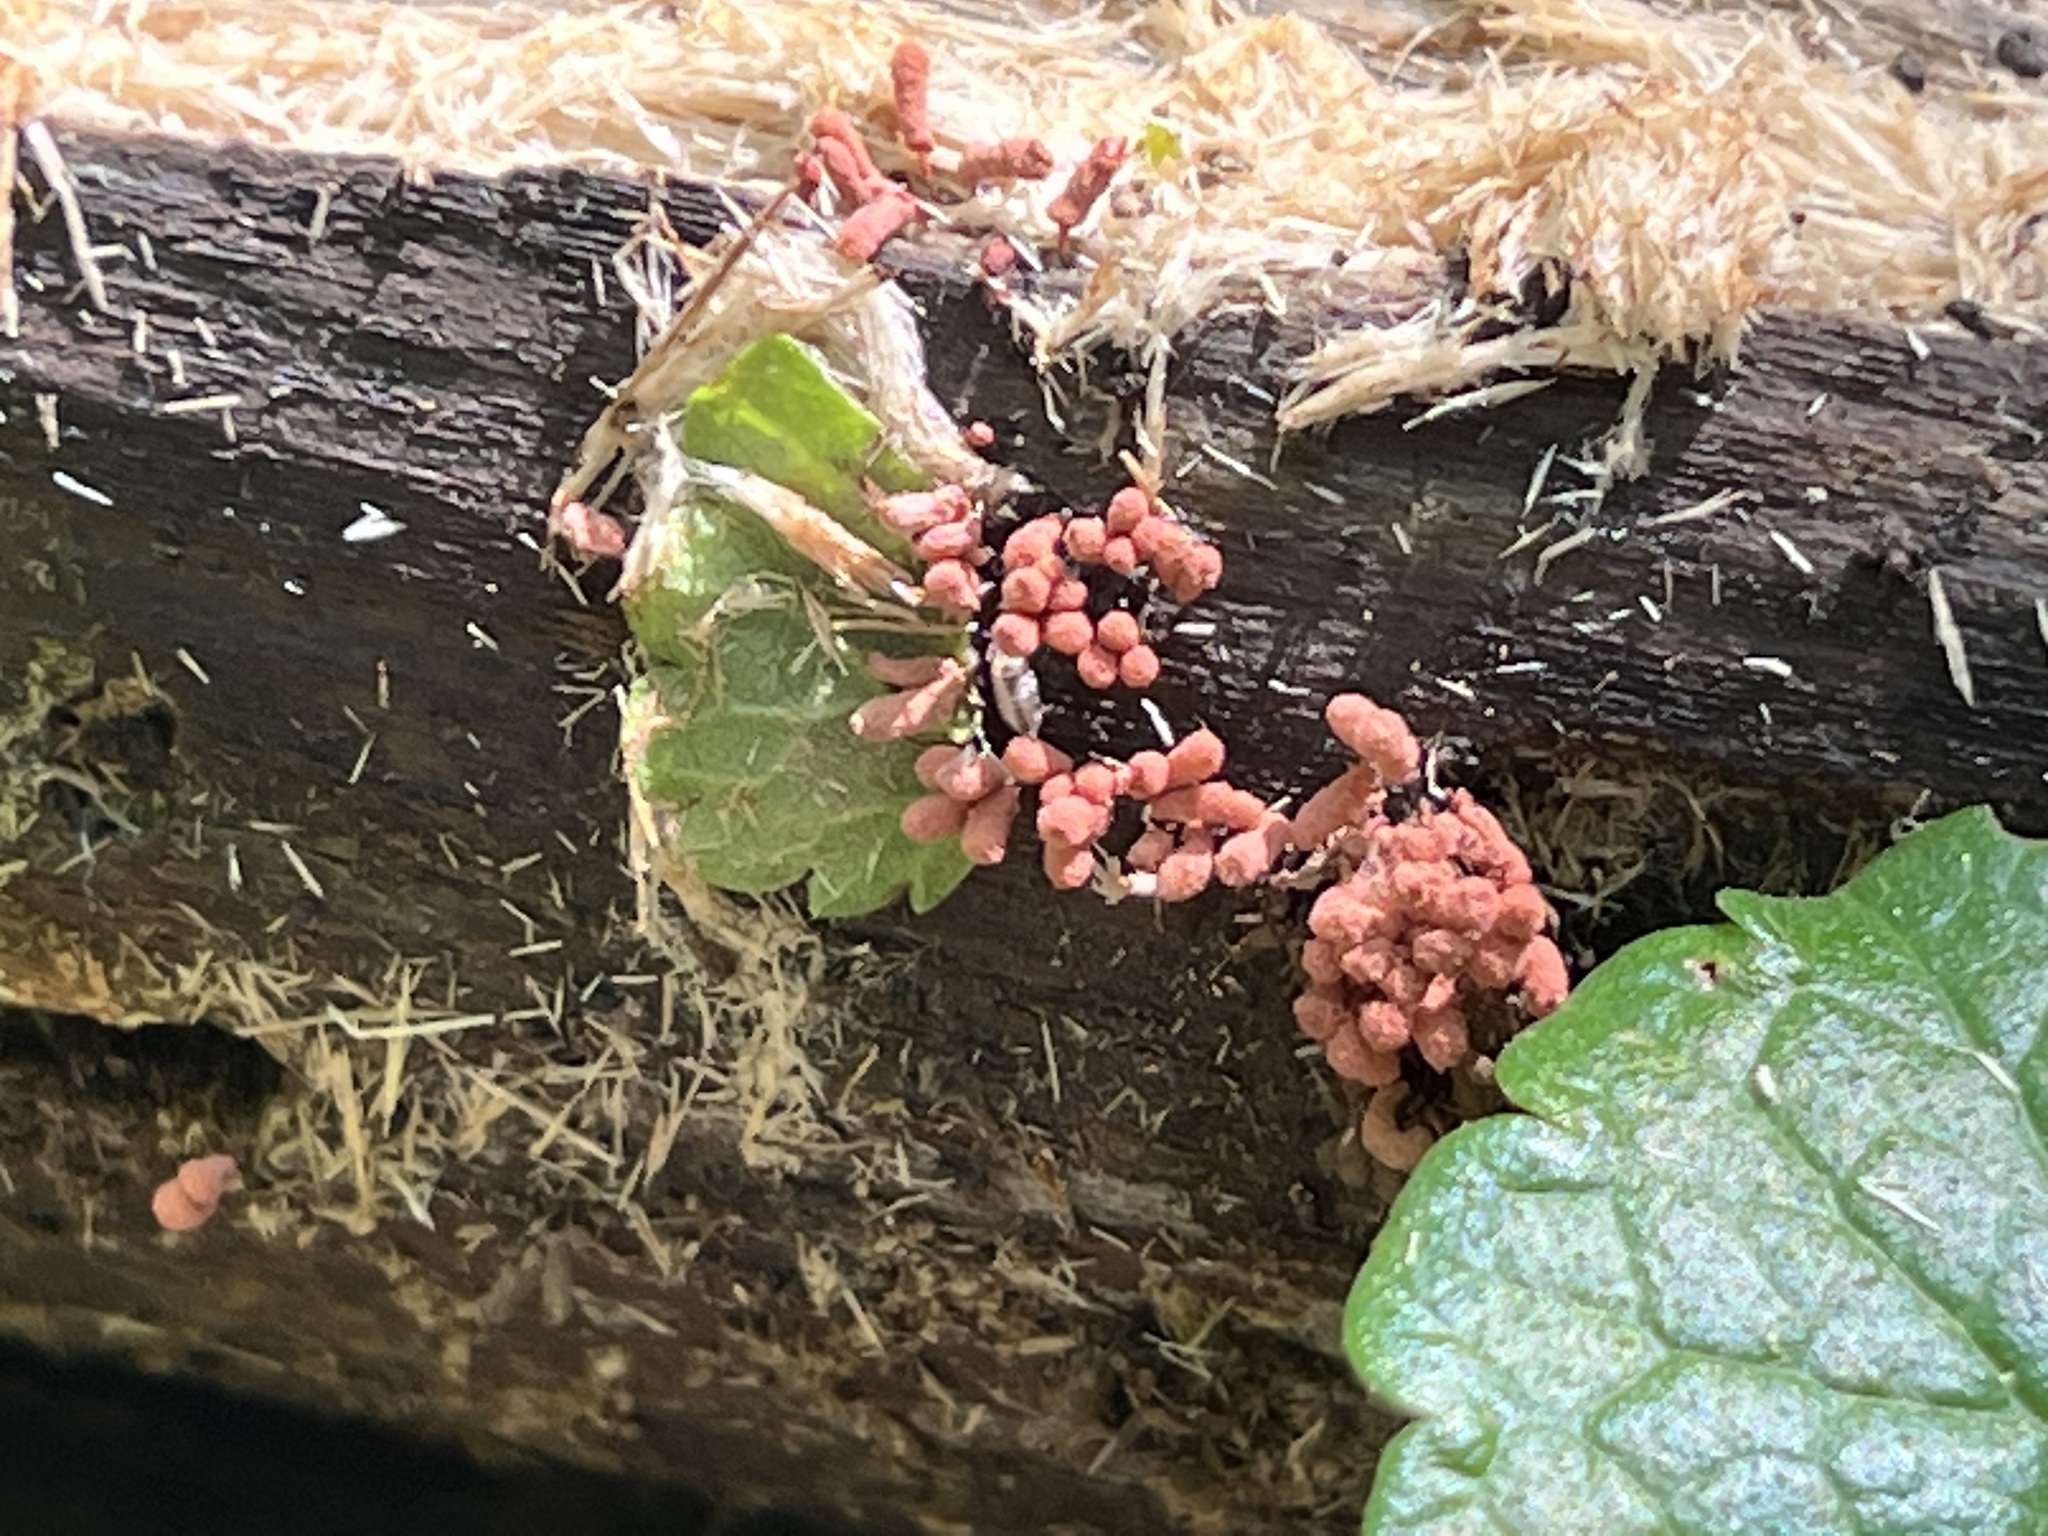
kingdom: Protozoa
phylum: Mycetozoa
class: Myxomycetes
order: Trichiales
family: Arcyriaceae
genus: Arcyria
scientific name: Arcyria denudata
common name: Carnival candy slime mold
